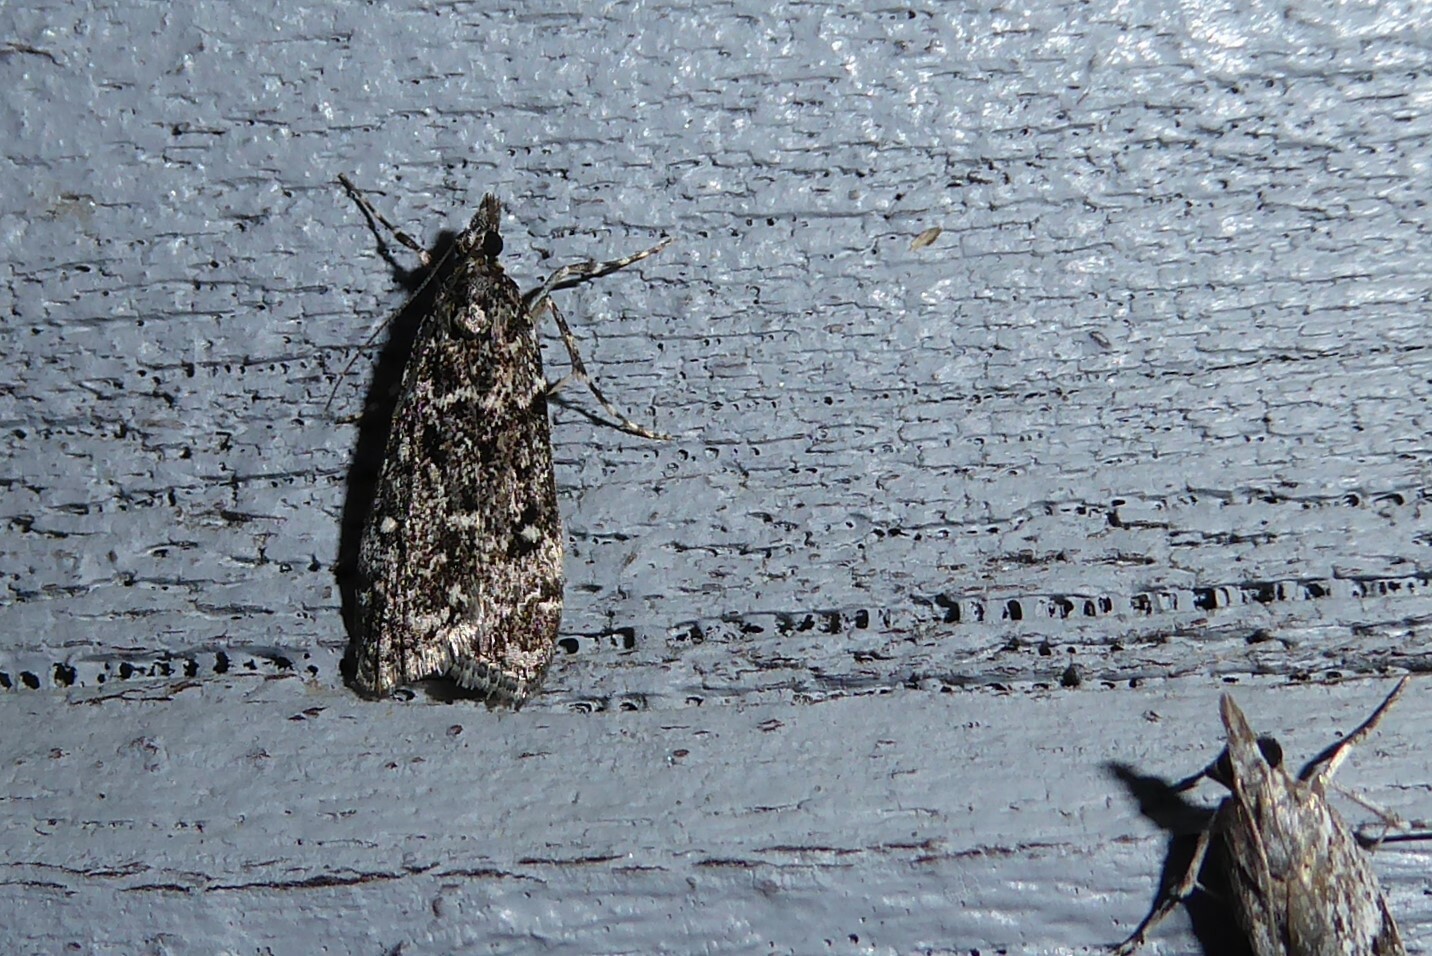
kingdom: Animalia
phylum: Arthropoda
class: Insecta
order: Lepidoptera
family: Crambidae
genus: Eudonia
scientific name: Eudonia philerga
